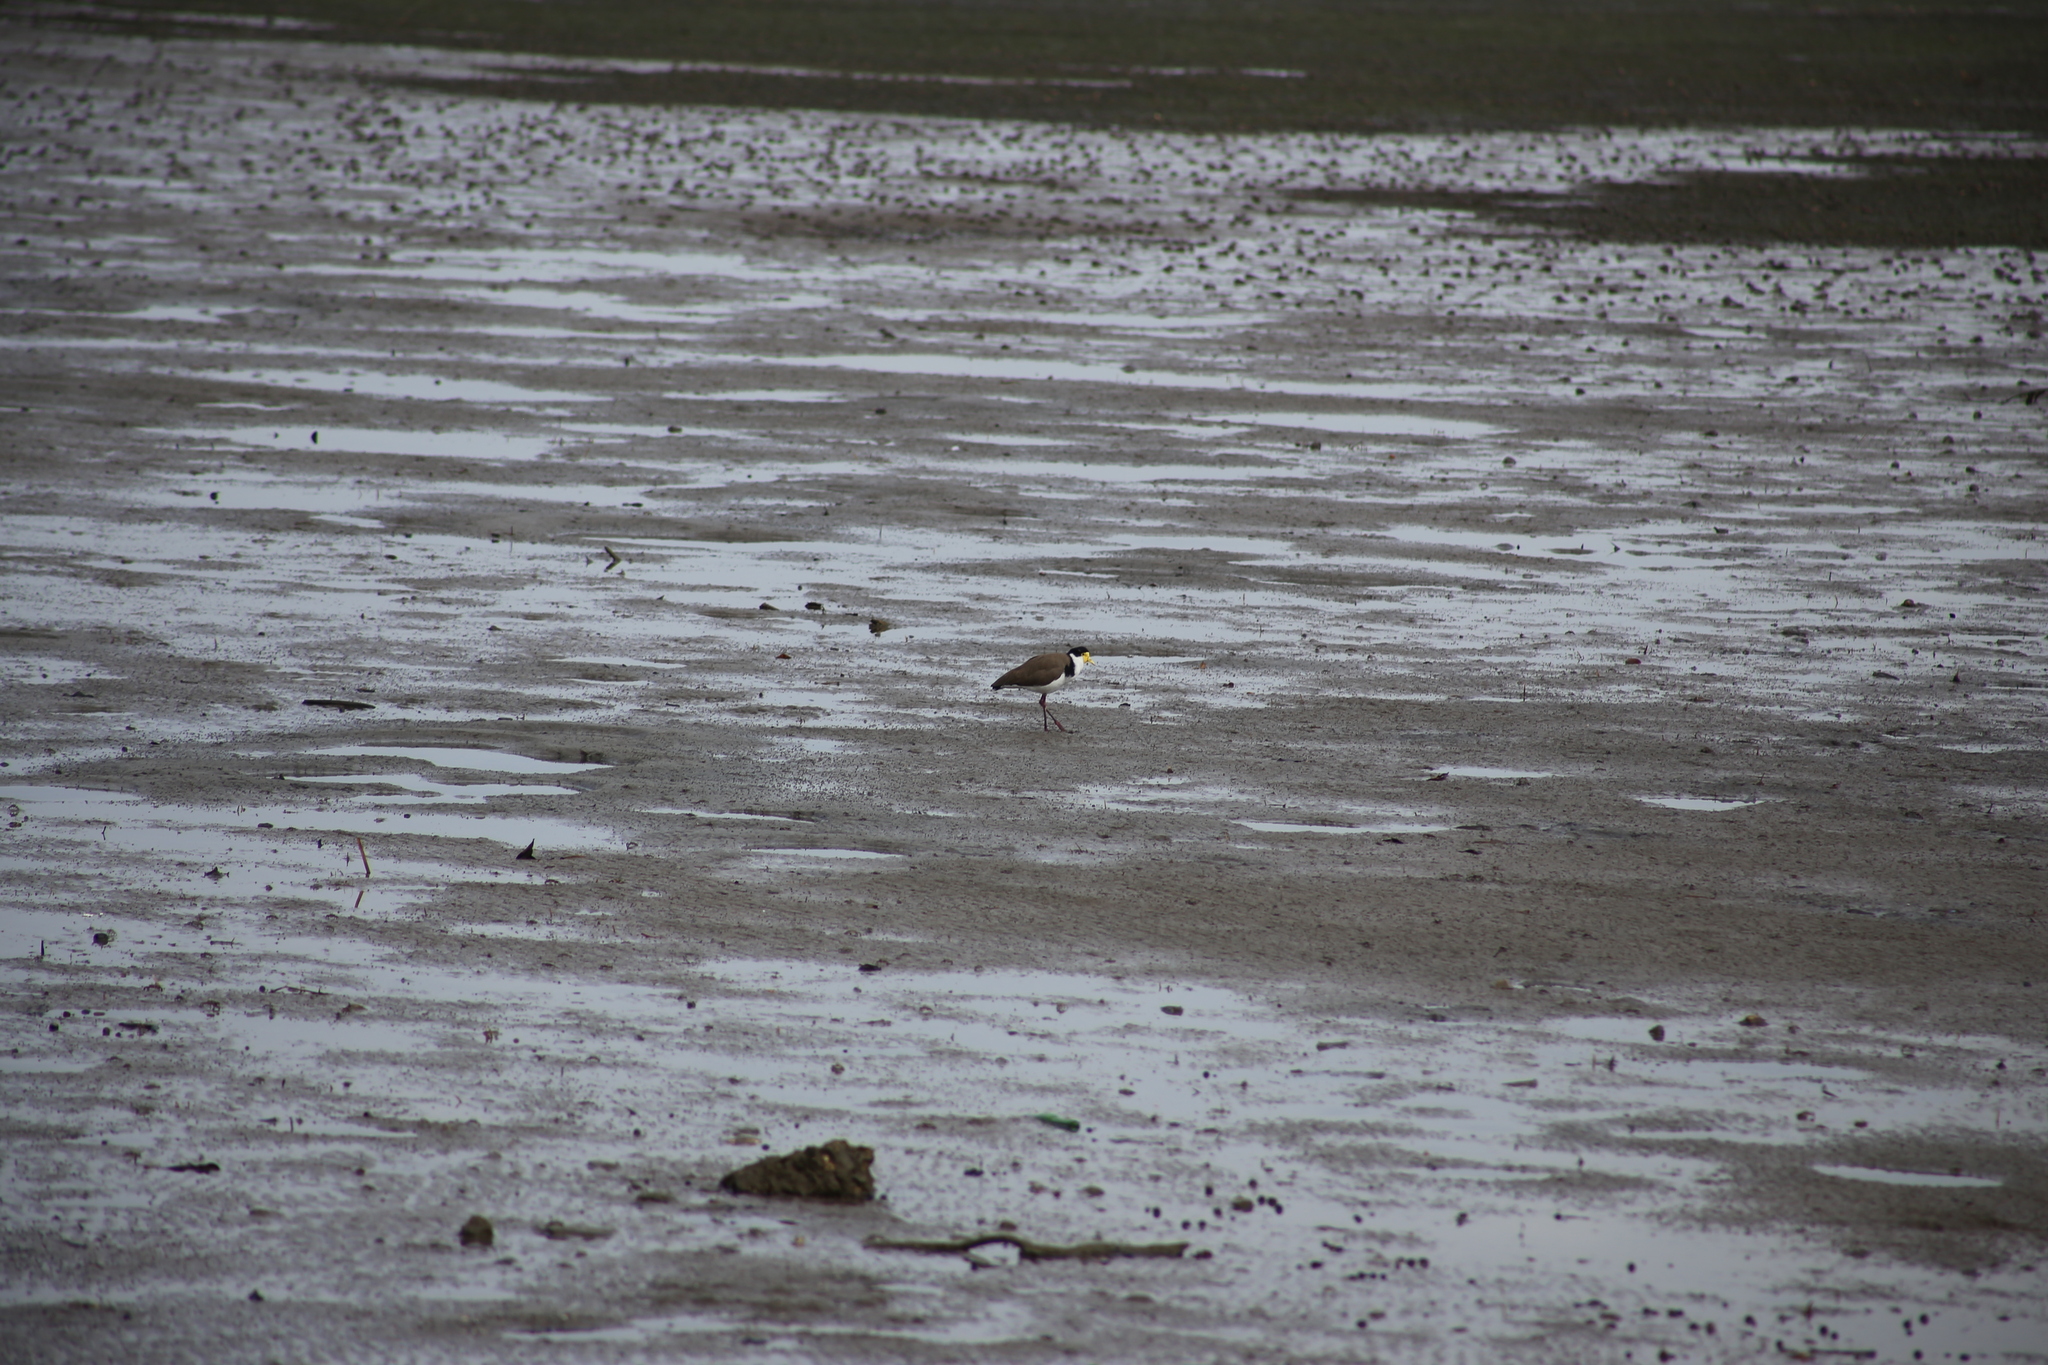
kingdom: Animalia
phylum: Chordata
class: Aves
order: Charadriiformes
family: Charadriidae
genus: Vanellus
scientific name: Vanellus miles
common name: Masked lapwing
